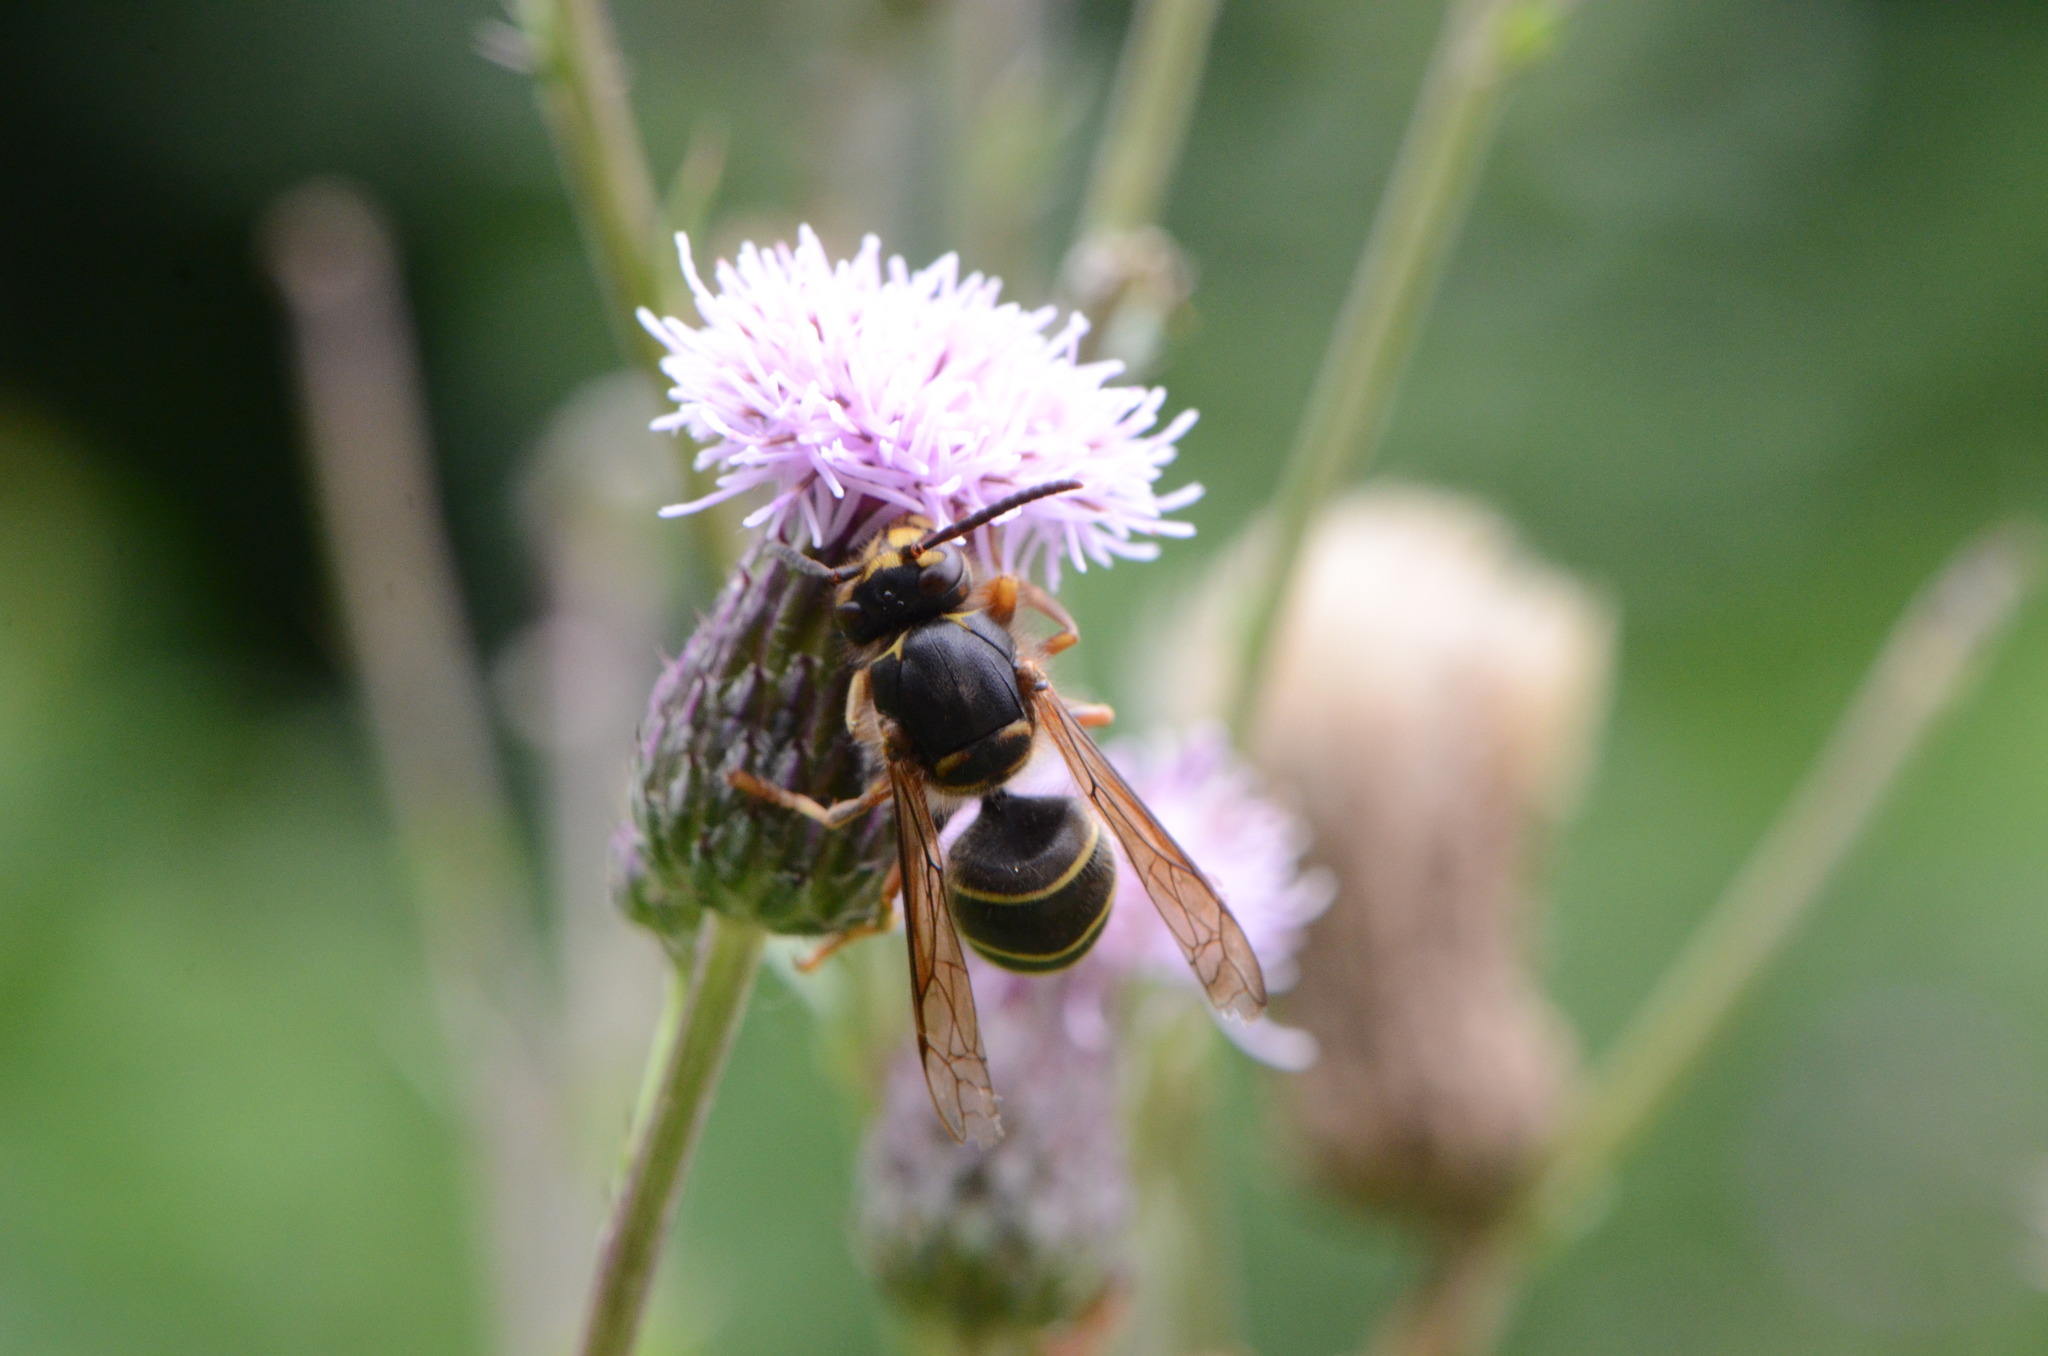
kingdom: Plantae
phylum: Tracheophyta
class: Magnoliopsida
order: Asterales
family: Asteraceae
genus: Cirsium
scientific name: Cirsium arvense
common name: Creeping thistle
